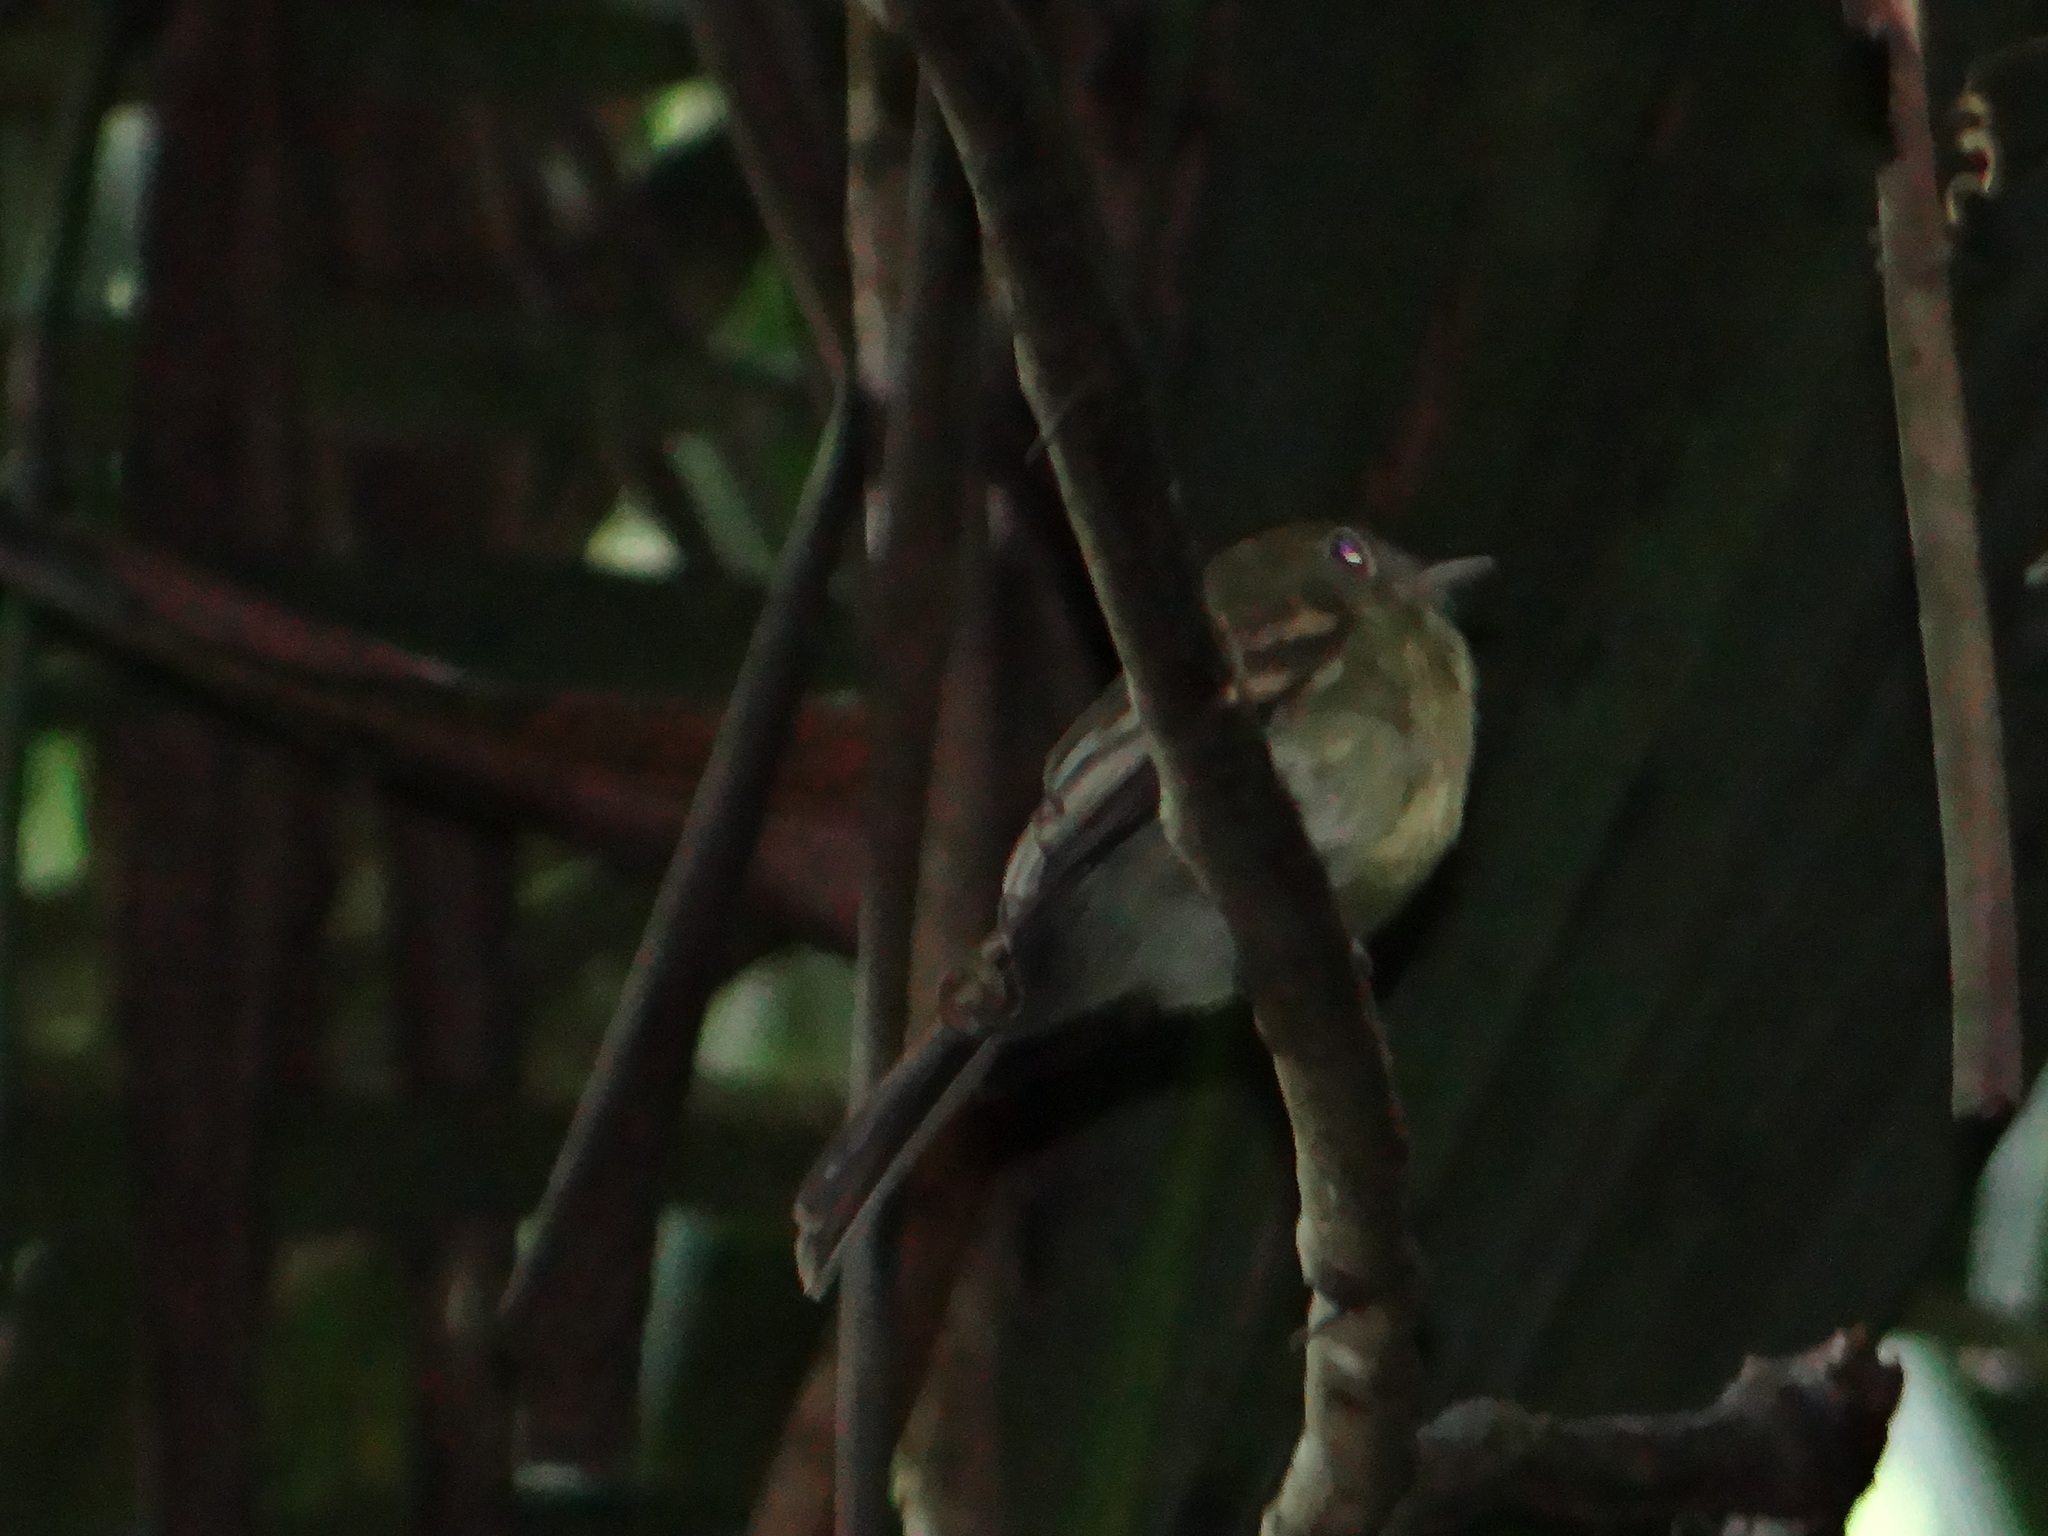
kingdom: Animalia
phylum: Chordata
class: Aves
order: Passeriformes
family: Tyrannidae
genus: Lathrotriccus
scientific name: Lathrotriccus euleri
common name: Euler's flycatcher
